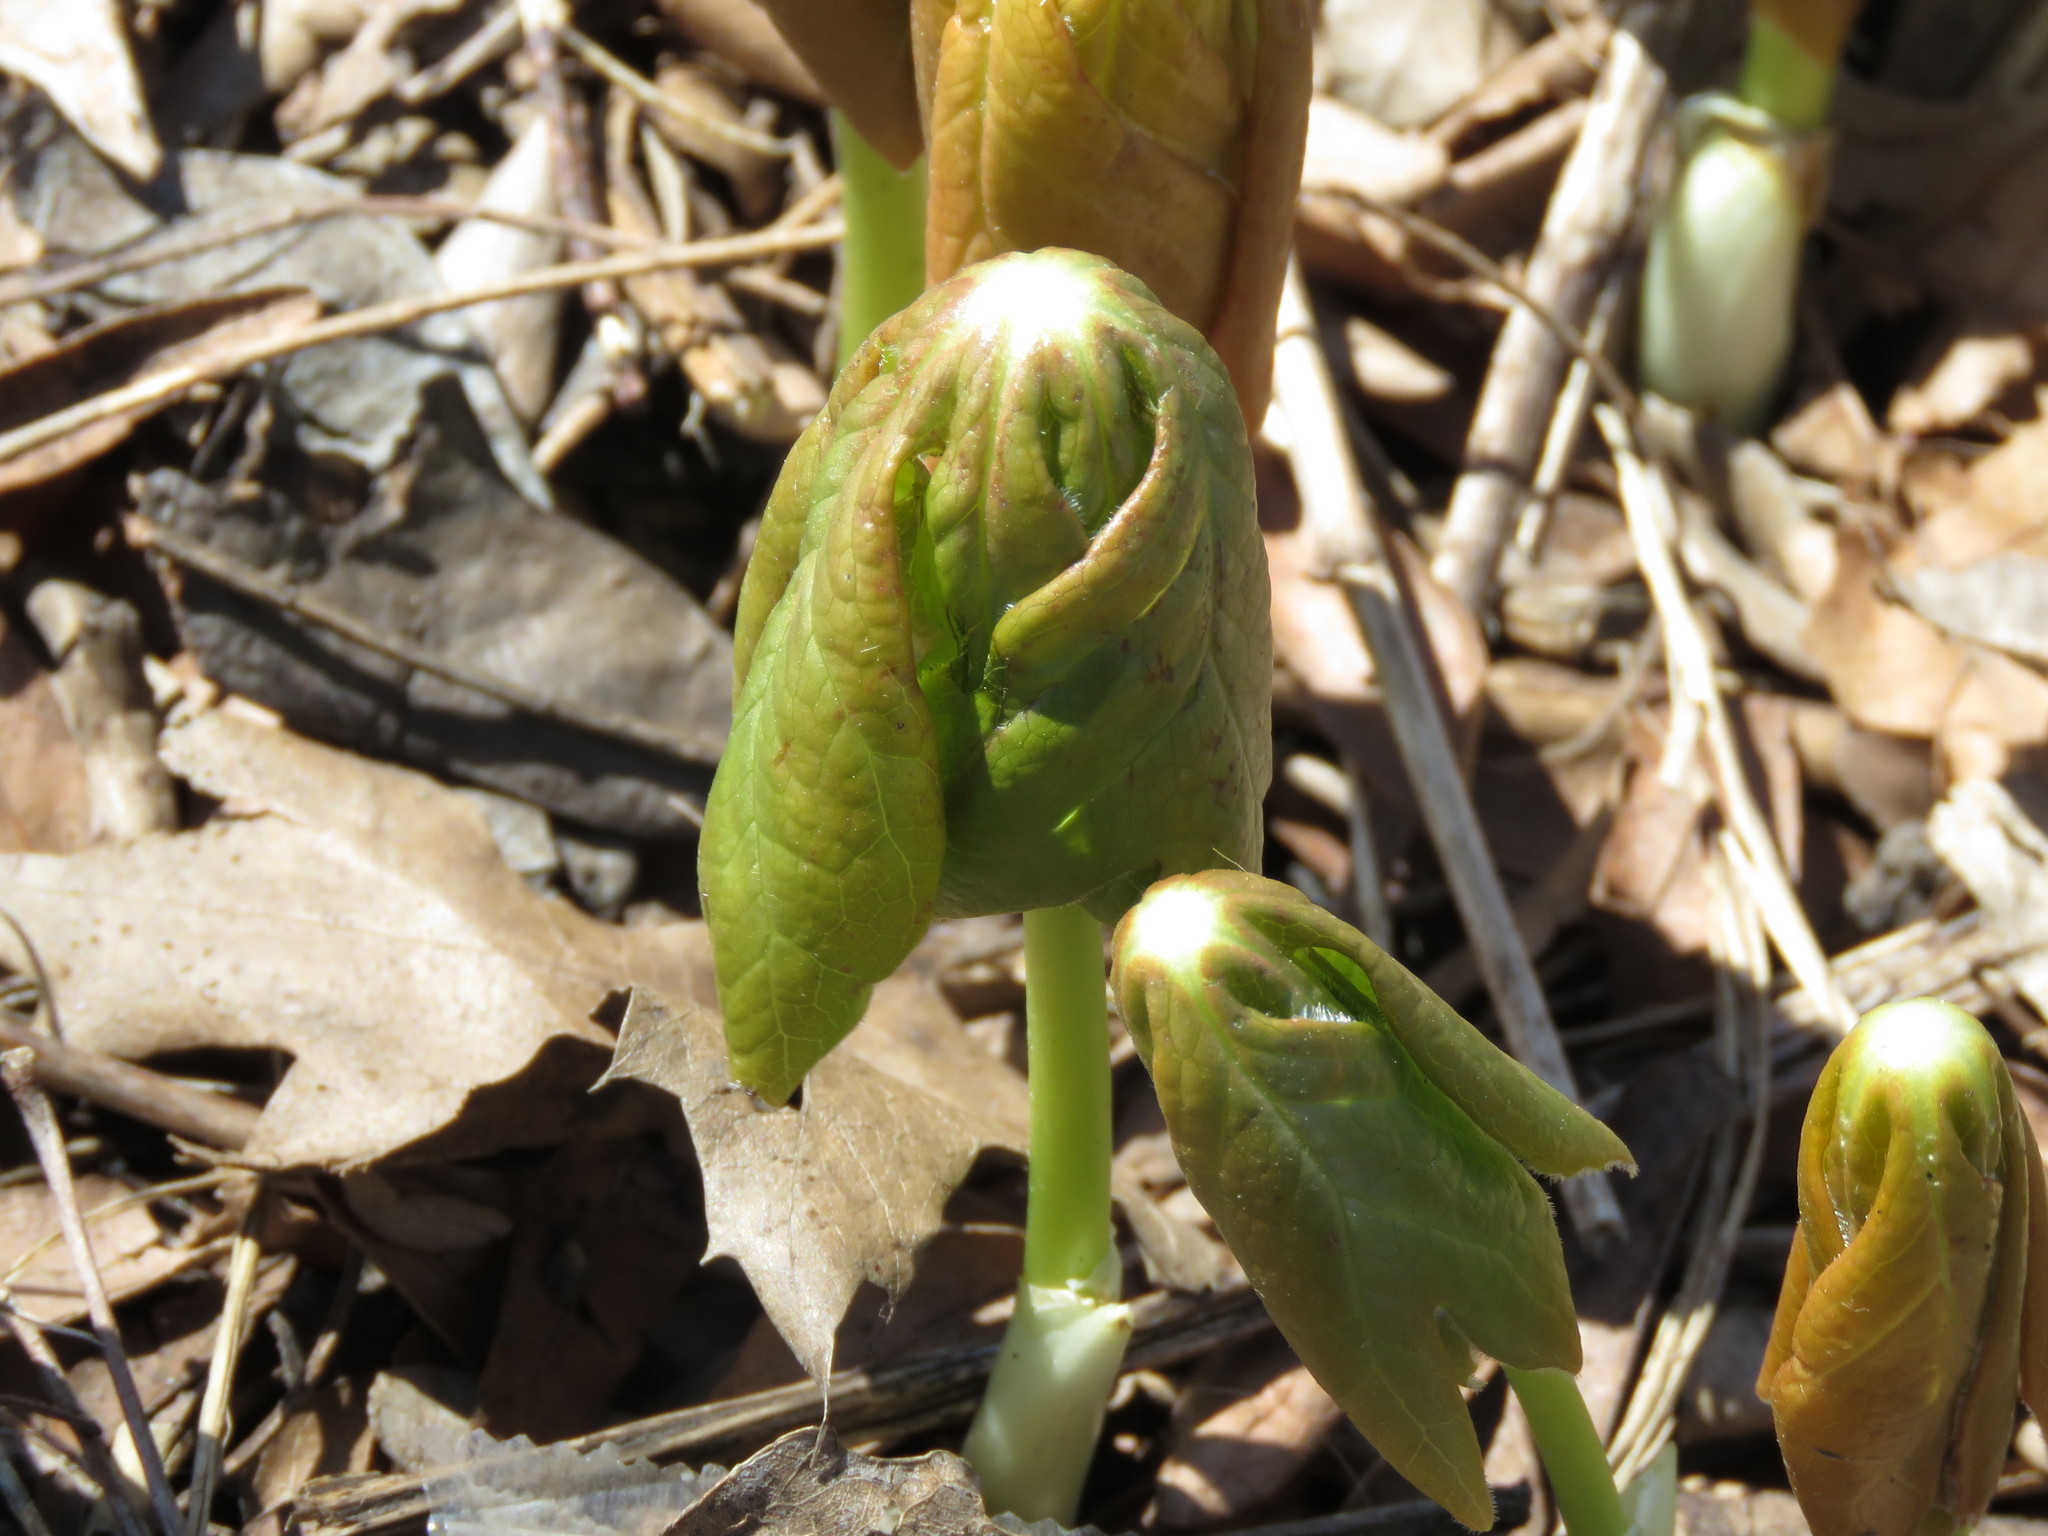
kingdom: Plantae
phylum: Tracheophyta
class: Magnoliopsida
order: Ranunculales
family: Berberidaceae
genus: Podophyllum
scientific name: Podophyllum peltatum
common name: Wild mandrake
